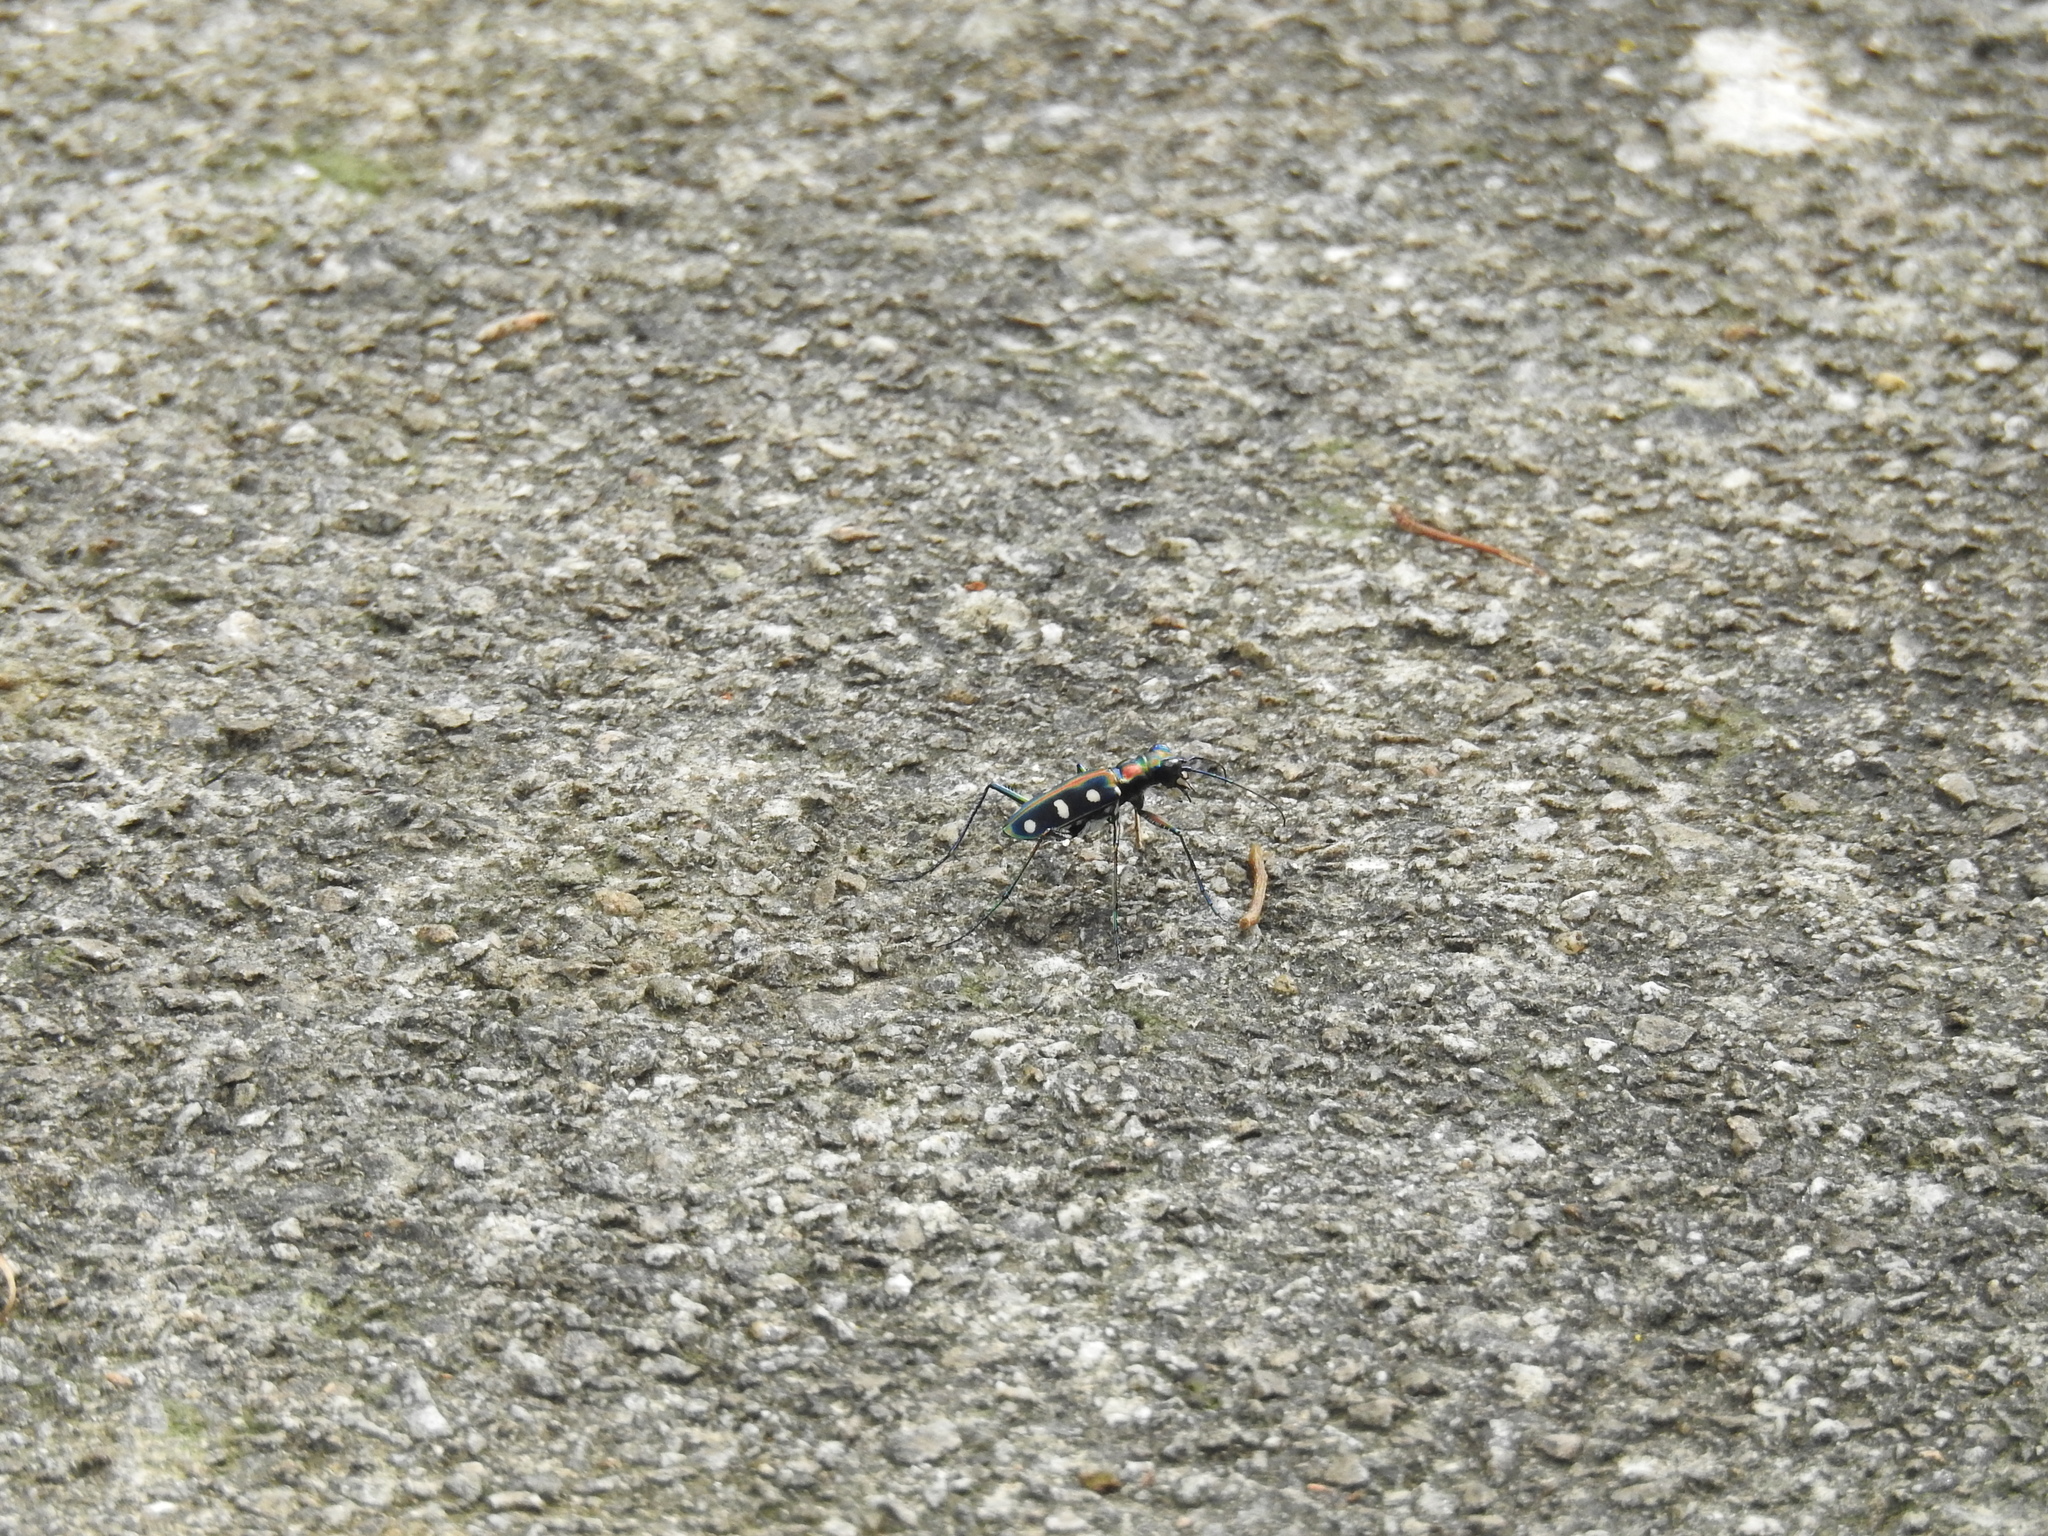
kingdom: Animalia
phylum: Arthropoda
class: Insecta
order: Coleoptera
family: Carabidae
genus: Cicindela
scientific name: Cicindela aurulenta
